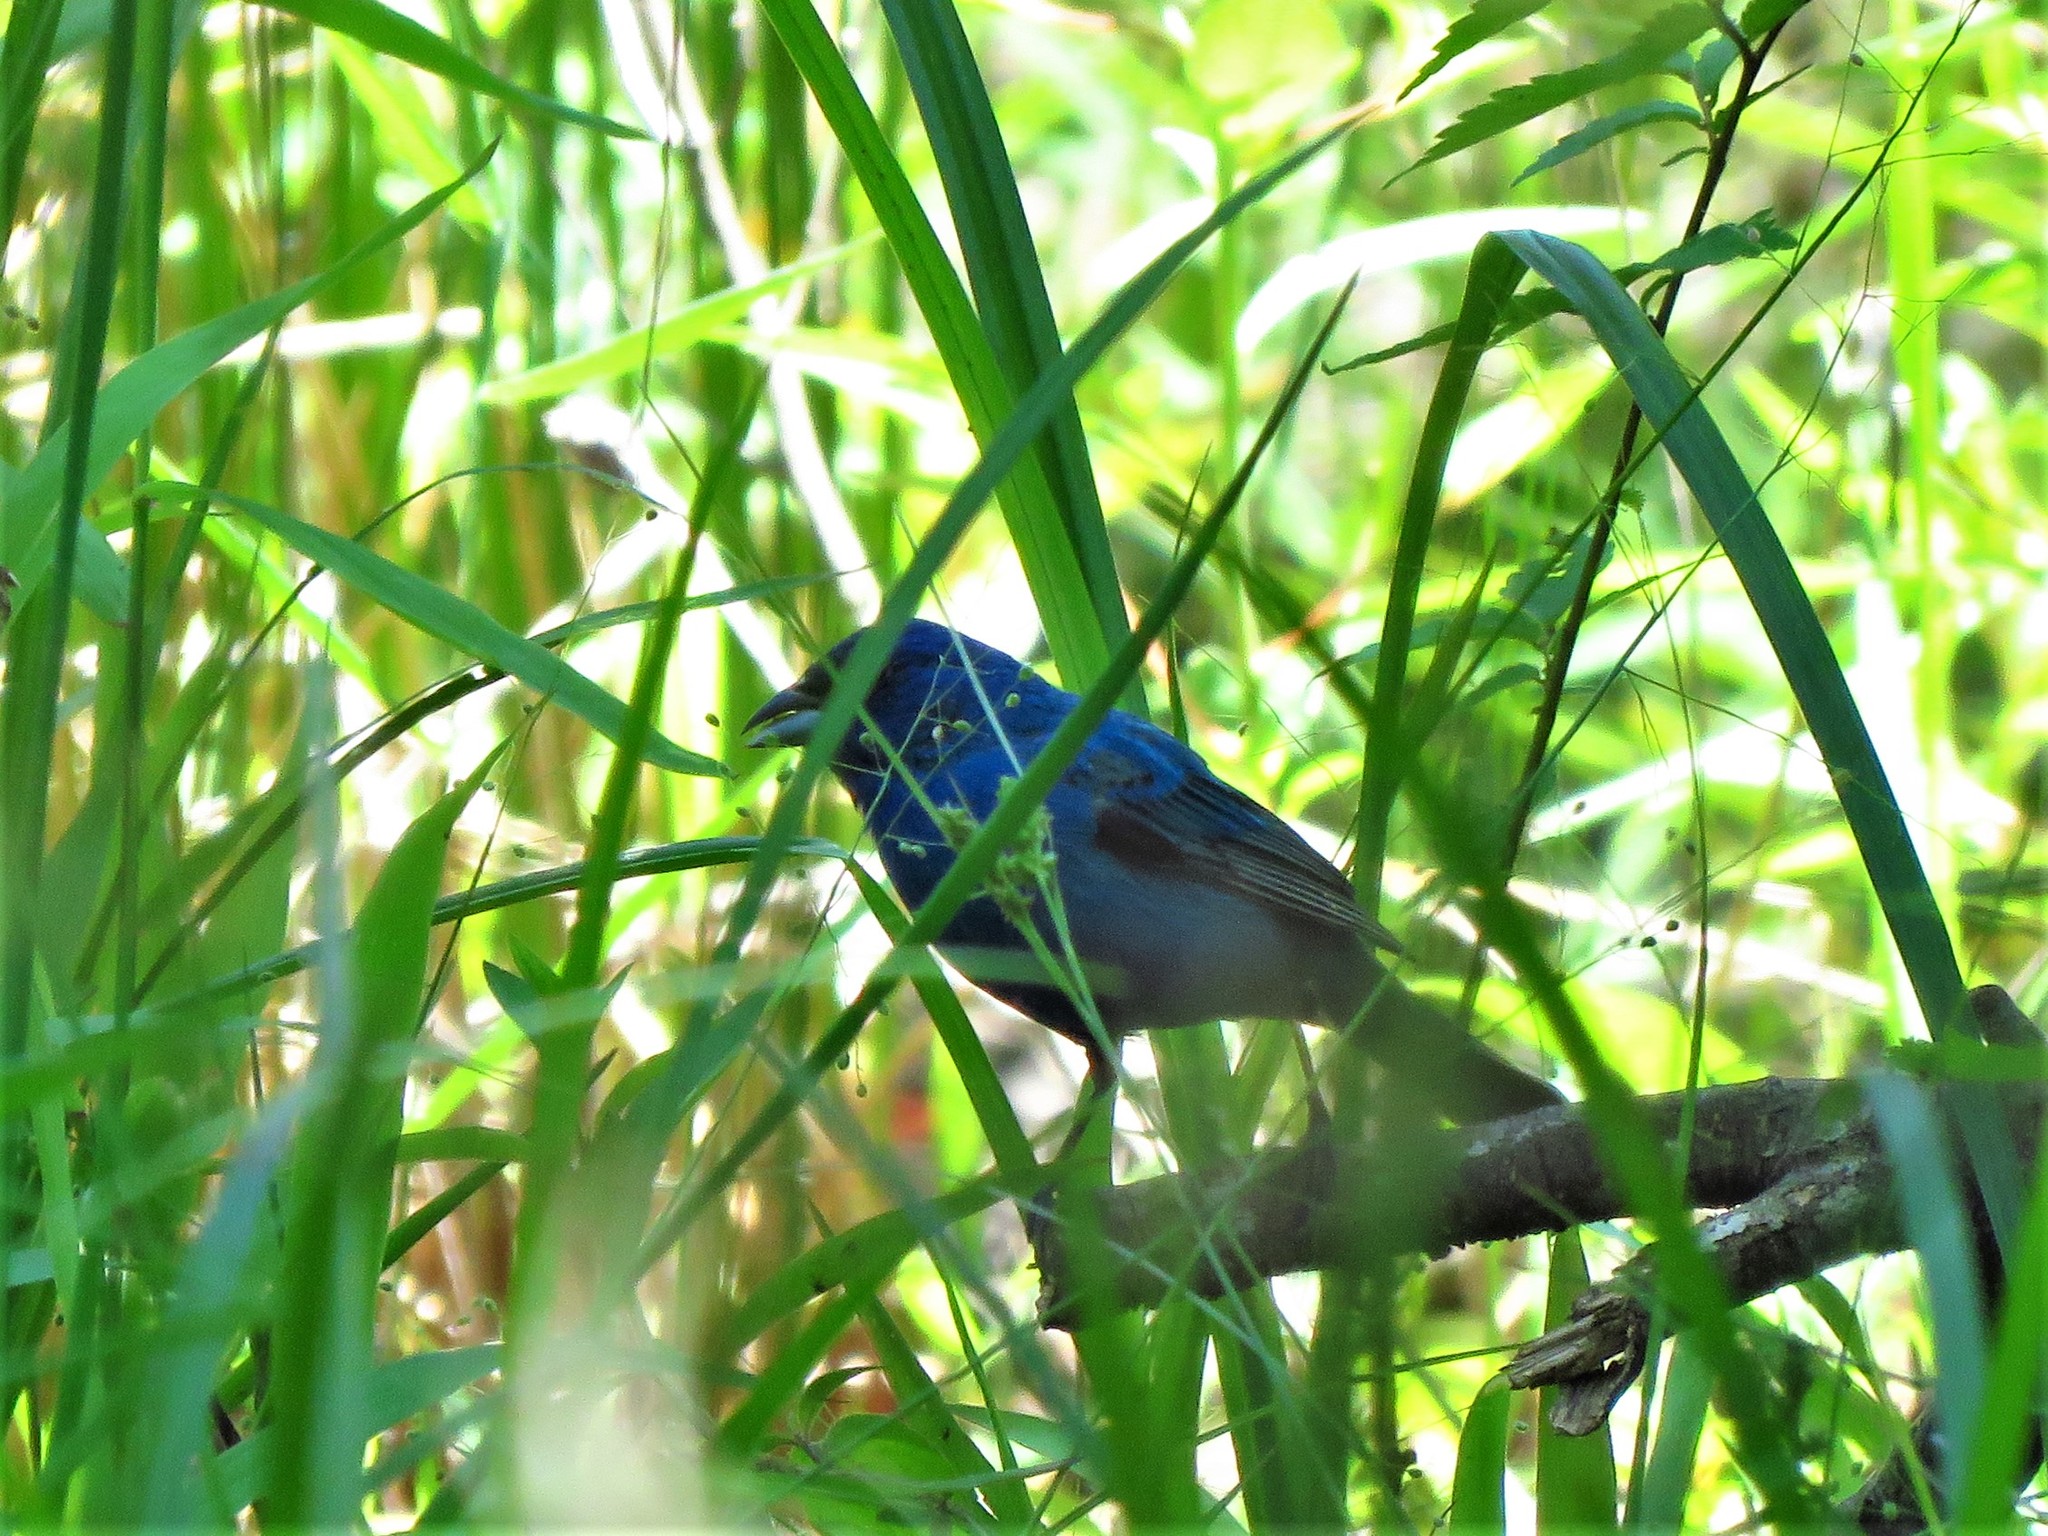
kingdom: Animalia
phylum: Chordata
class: Aves
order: Passeriformes
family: Cardinalidae
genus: Passerina
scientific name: Passerina cyanea
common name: Indigo bunting
